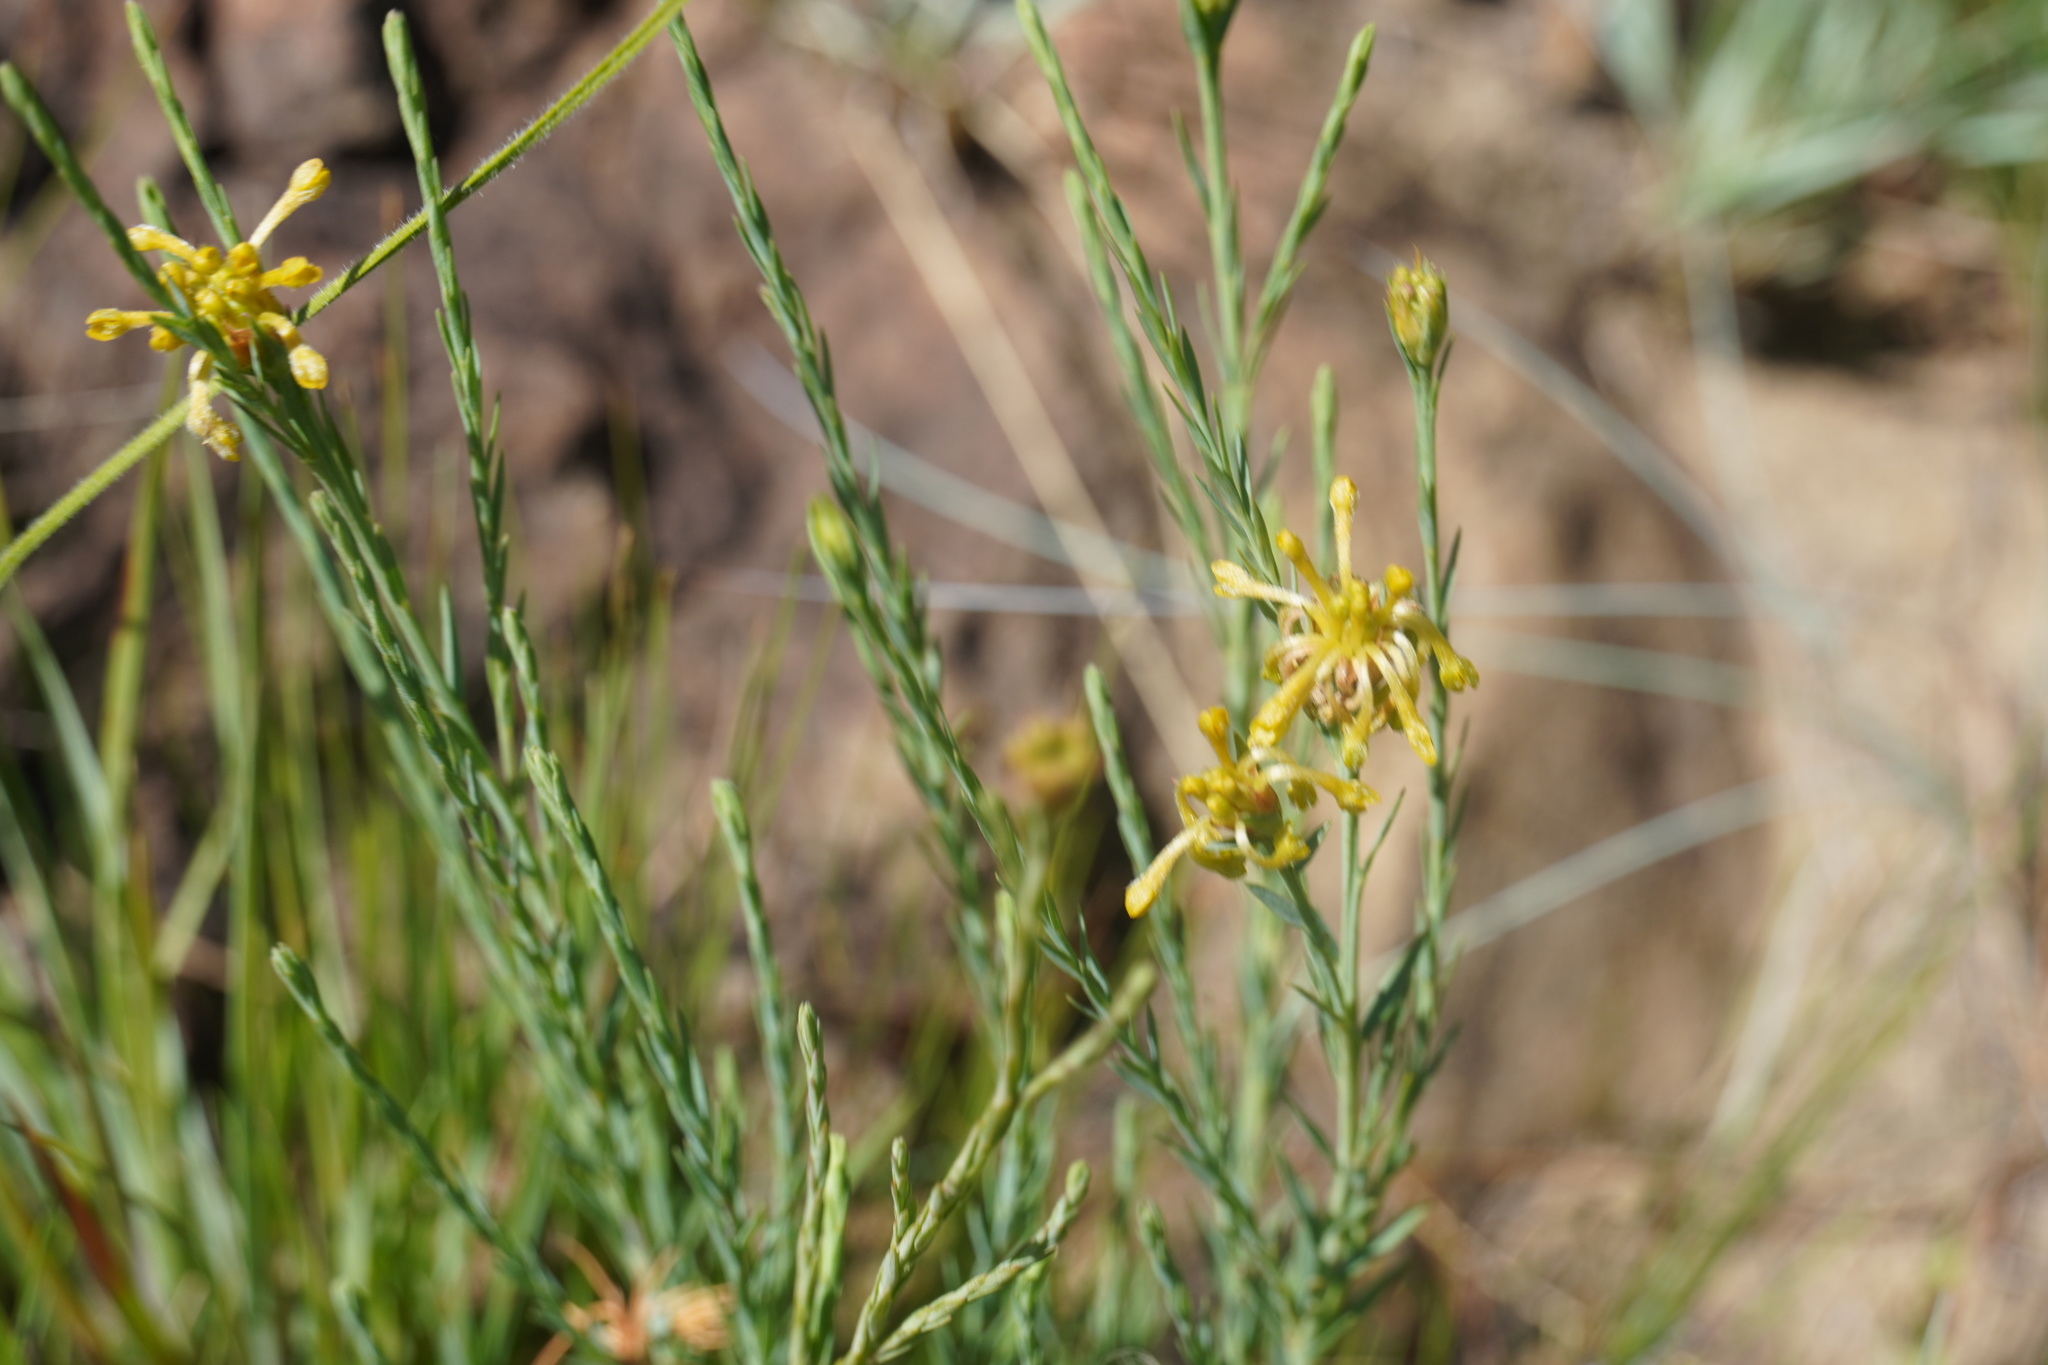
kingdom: Plantae
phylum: Tracheophyta
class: Magnoliopsida
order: Malvales
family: Thymelaeaceae
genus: Gnidia
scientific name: Gnidia microcephala
